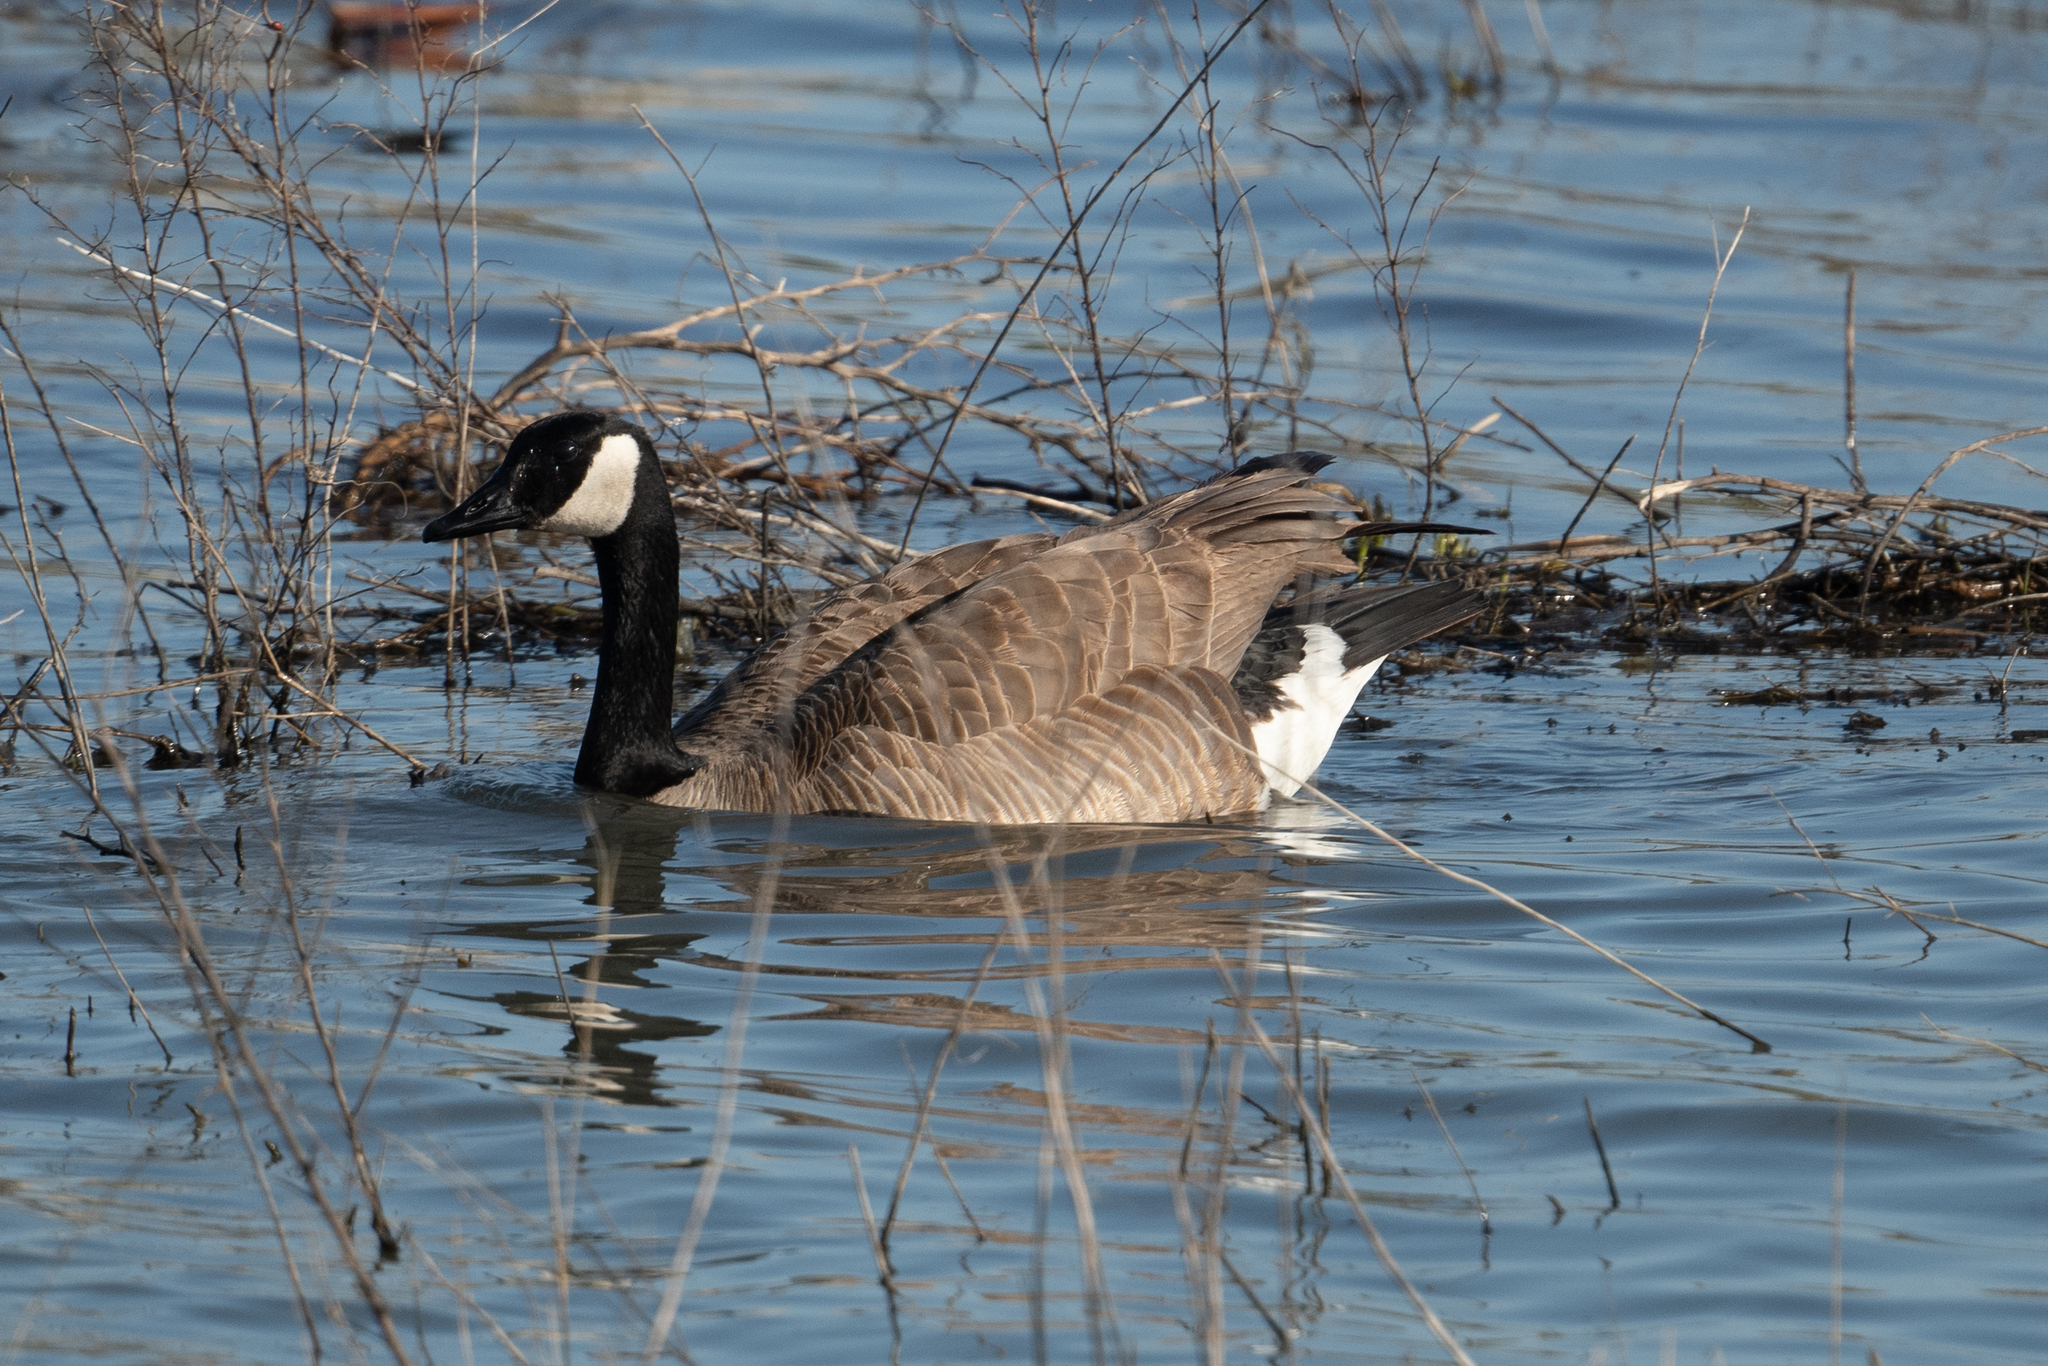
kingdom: Animalia
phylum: Chordata
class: Aves
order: Anseriformes
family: Anatidae
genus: Branta
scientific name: Branta canadensis
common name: Canada goose
